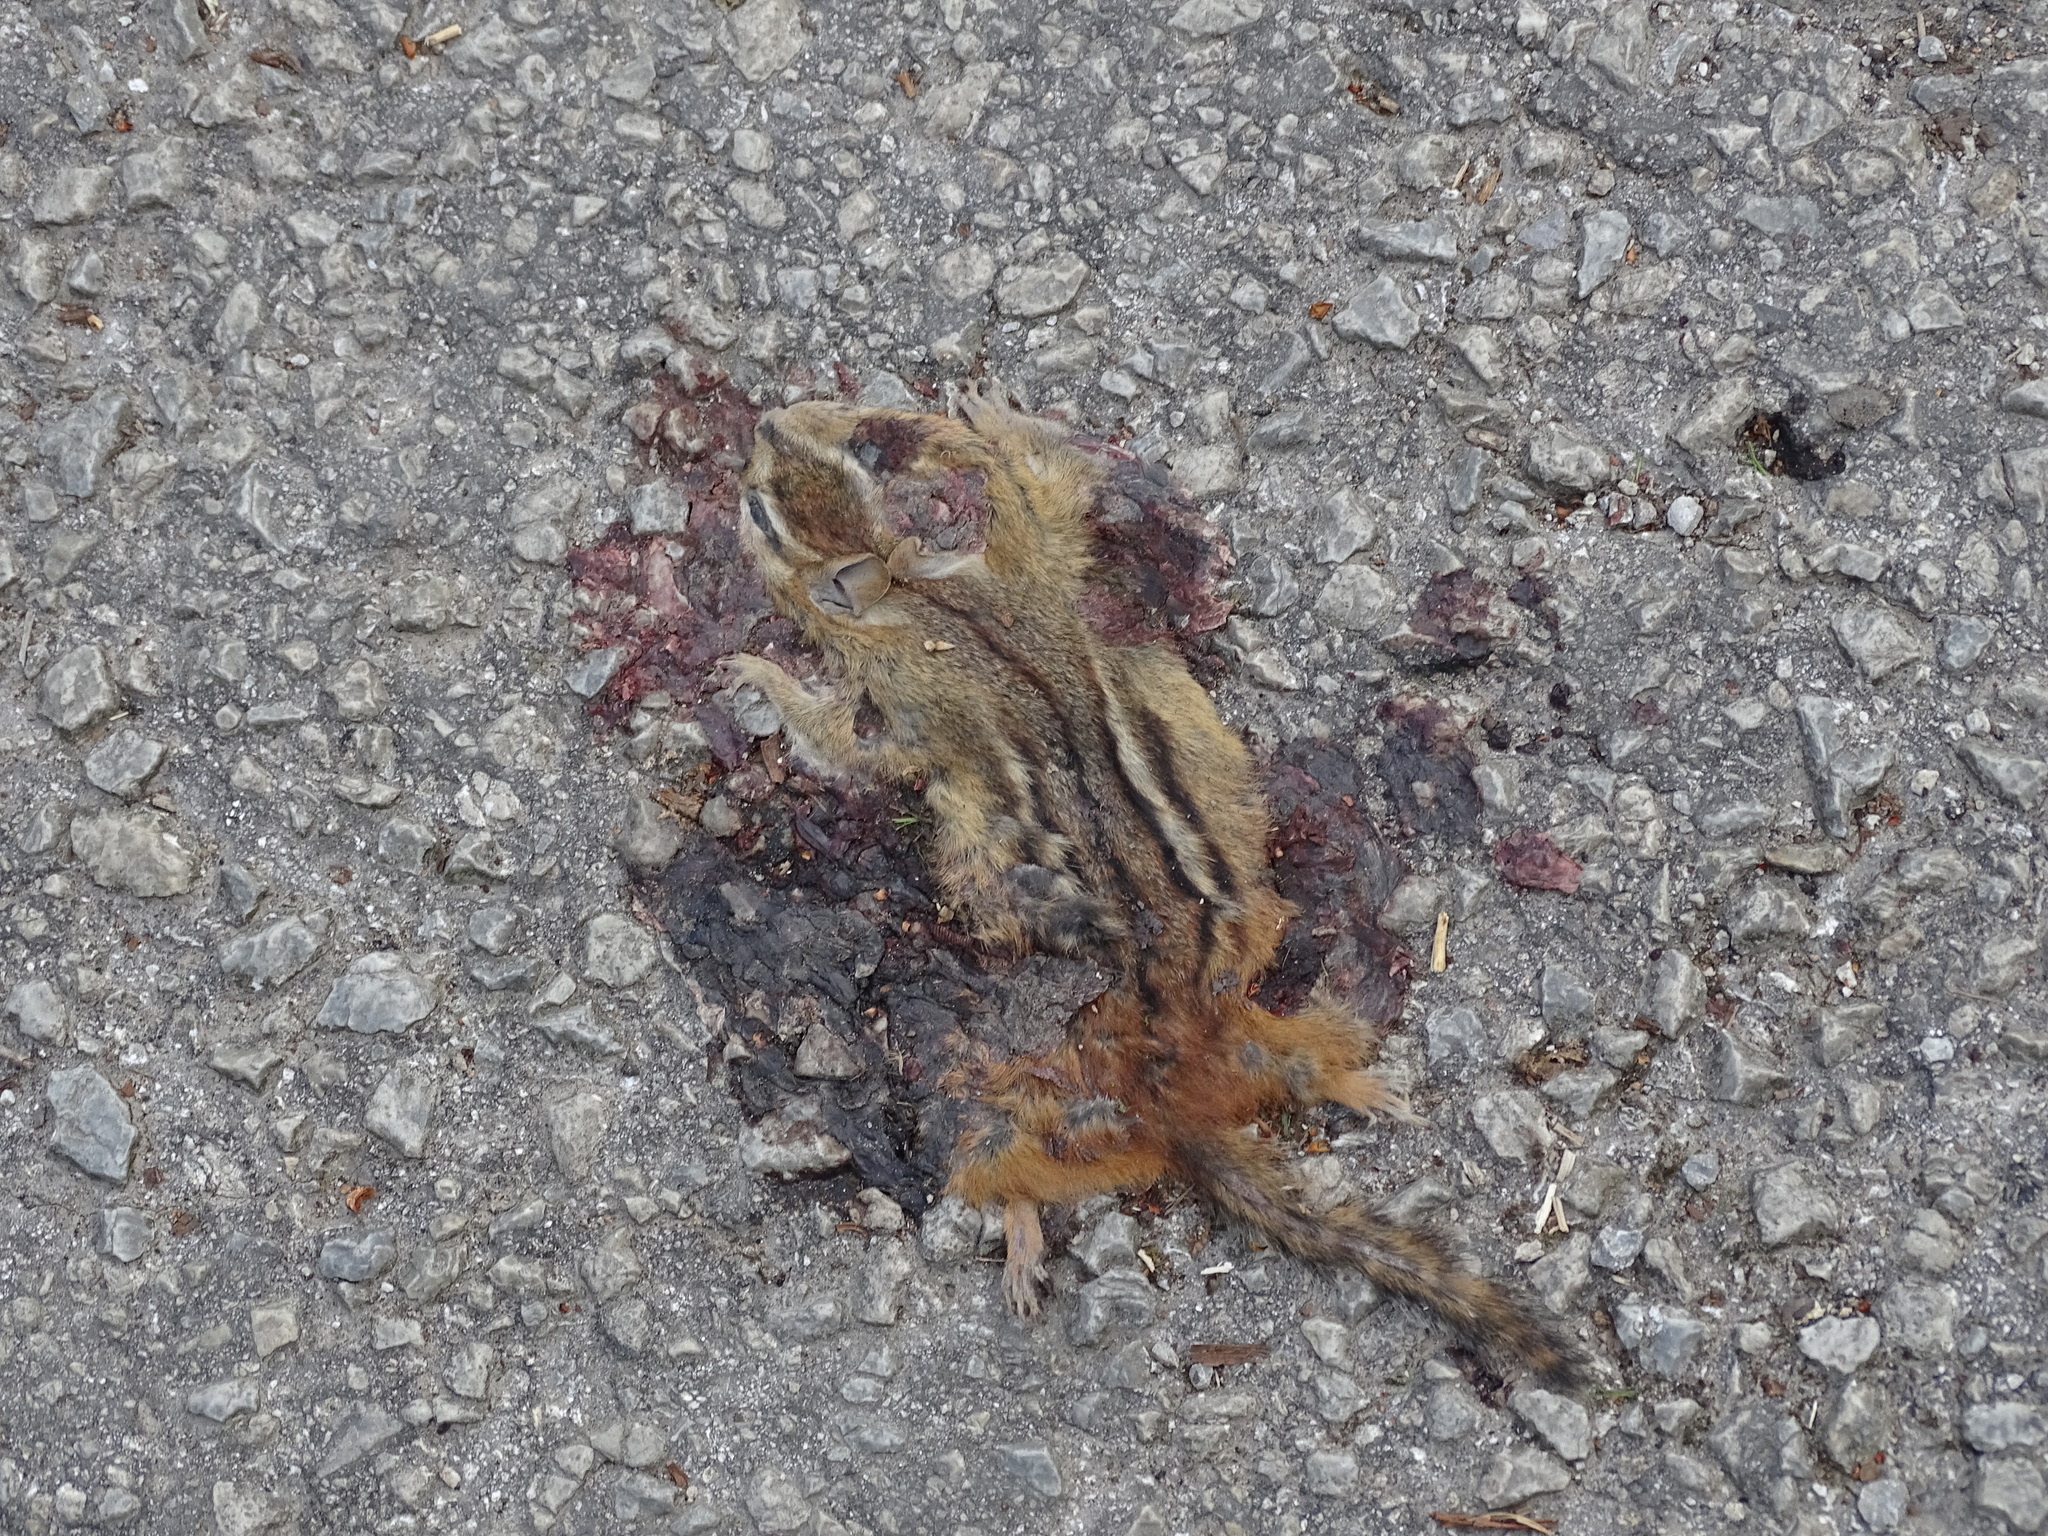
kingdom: Animalia
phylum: Chordata
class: Mammalia
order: Rodentia
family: Sciuridae
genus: Tamias
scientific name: Tamias striatus
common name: Eastern chipmunk
